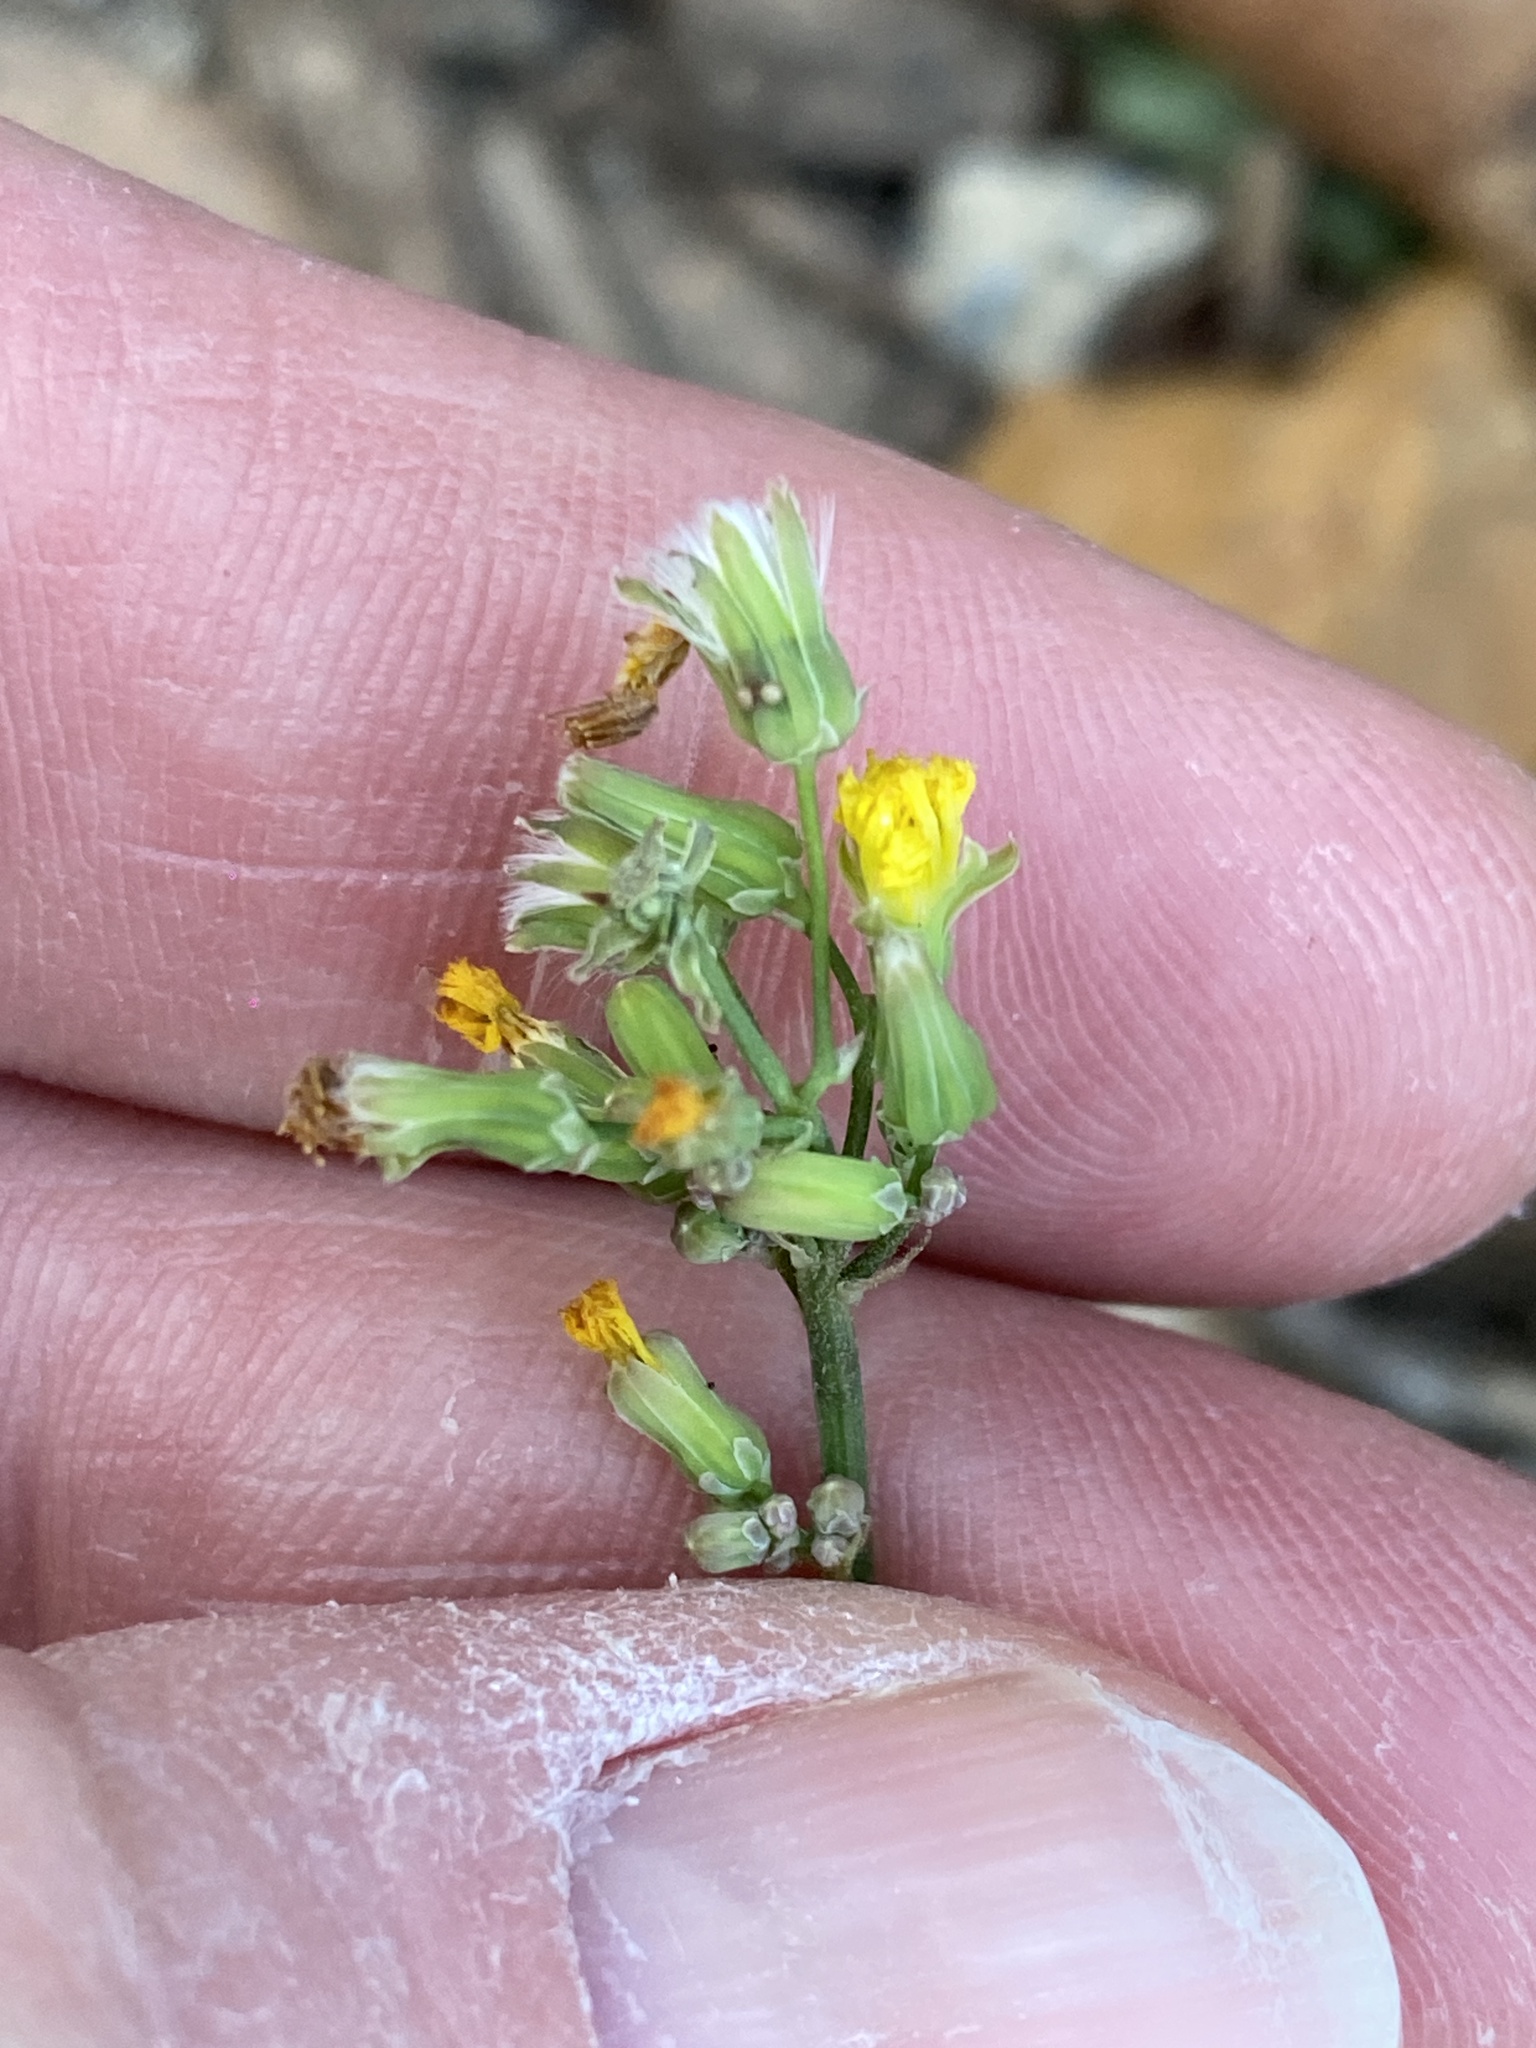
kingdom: Plantae
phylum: Tracheophyta
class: Magnoliopsida
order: Asterales
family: Asteraceae
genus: Youngia
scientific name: Youngia japonica
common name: Oriental false hawksbeard
